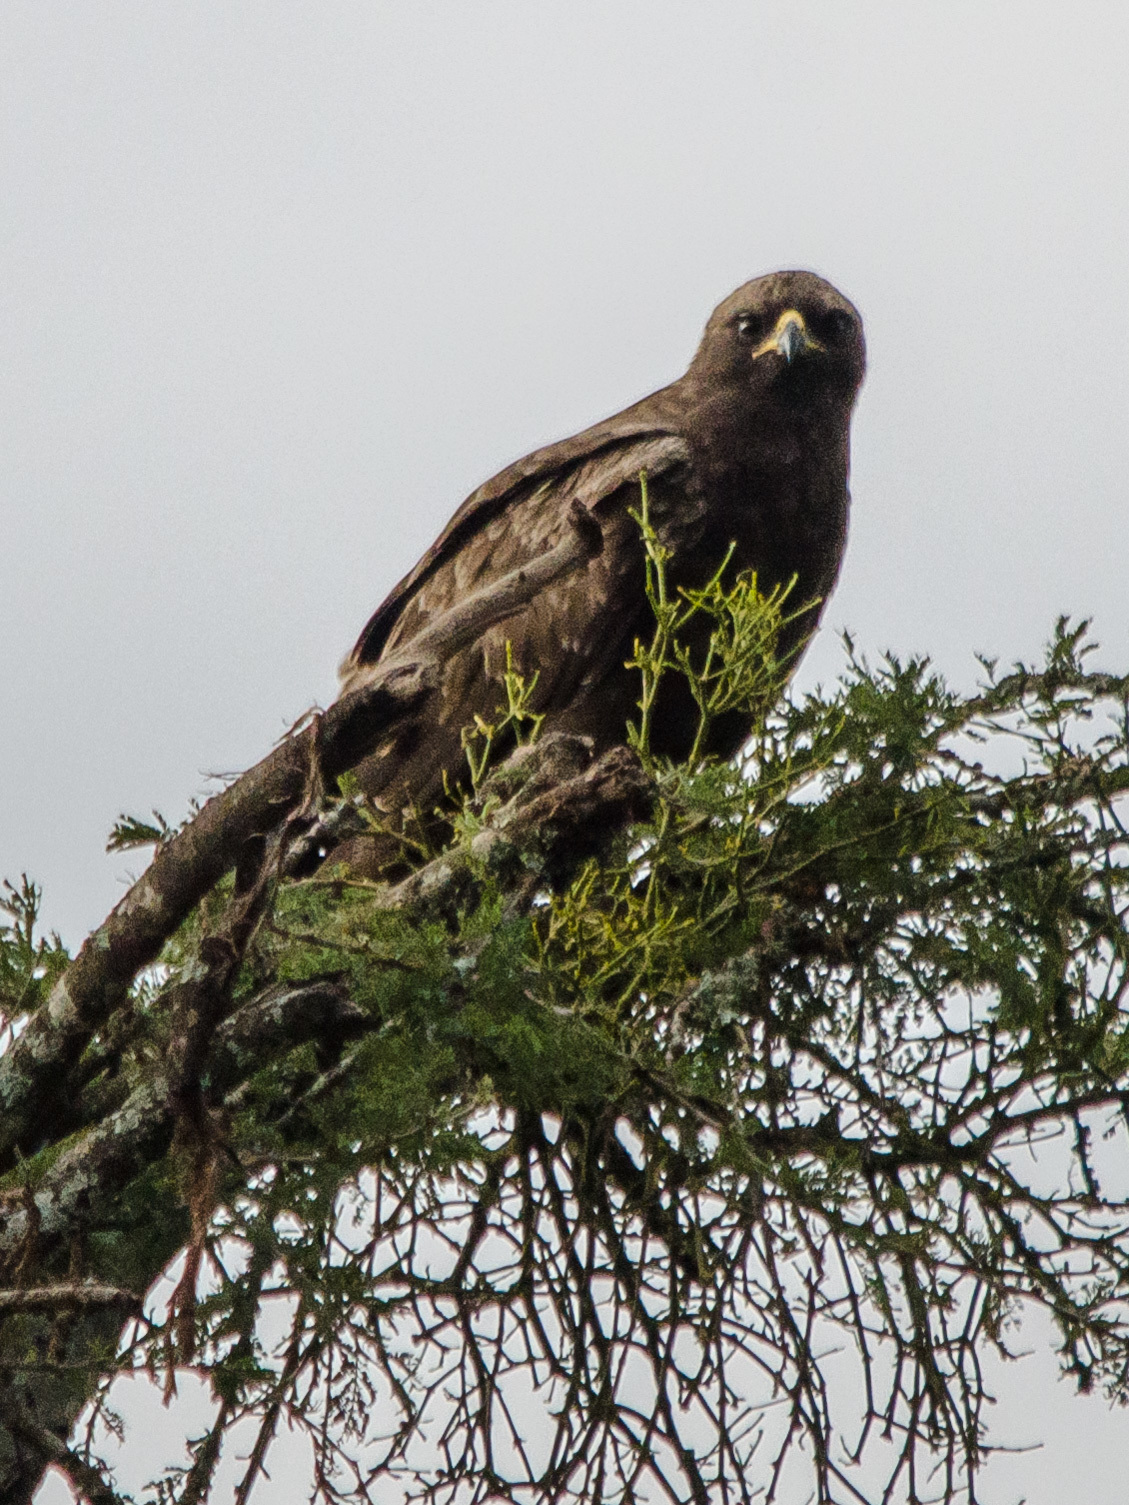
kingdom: Animalia
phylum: Chordata
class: Aves
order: Accipitriformes
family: Accipitridae
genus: Hieraaetus
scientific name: Hieraaetus wahlbergi
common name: Wahlberg's eagle
